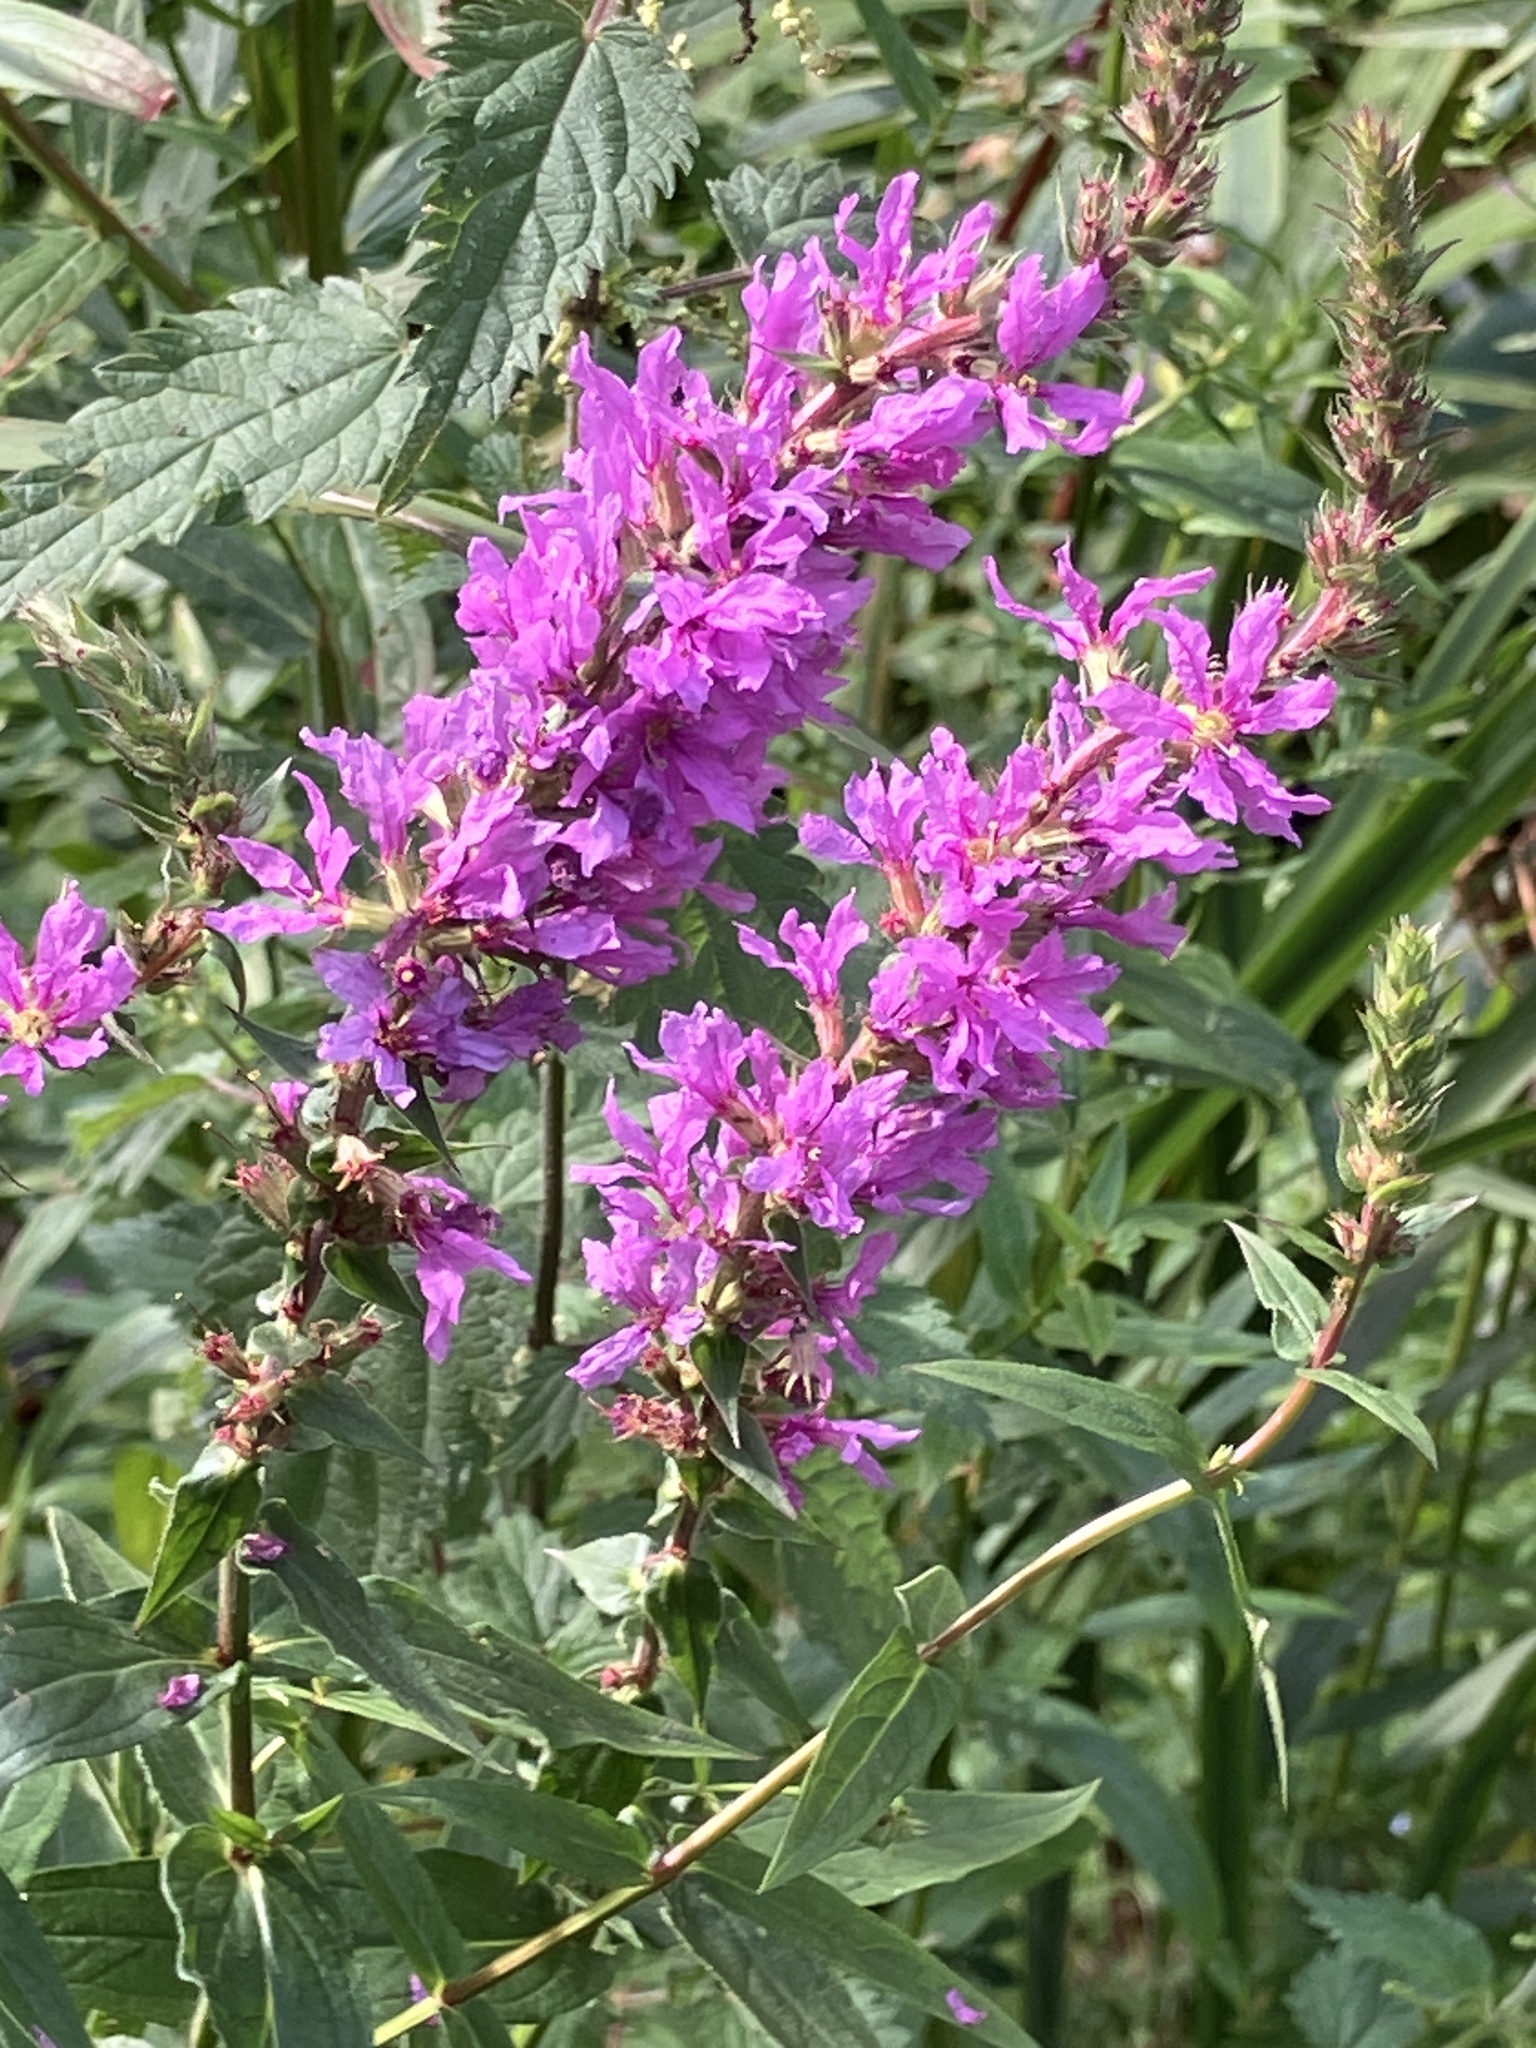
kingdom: Plantae
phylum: Tracheophyta
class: Magnoliopsida
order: Myrtales
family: Lythraceae
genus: Lythrum
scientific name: Lythrum salicaria
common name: Purple loosestrife
